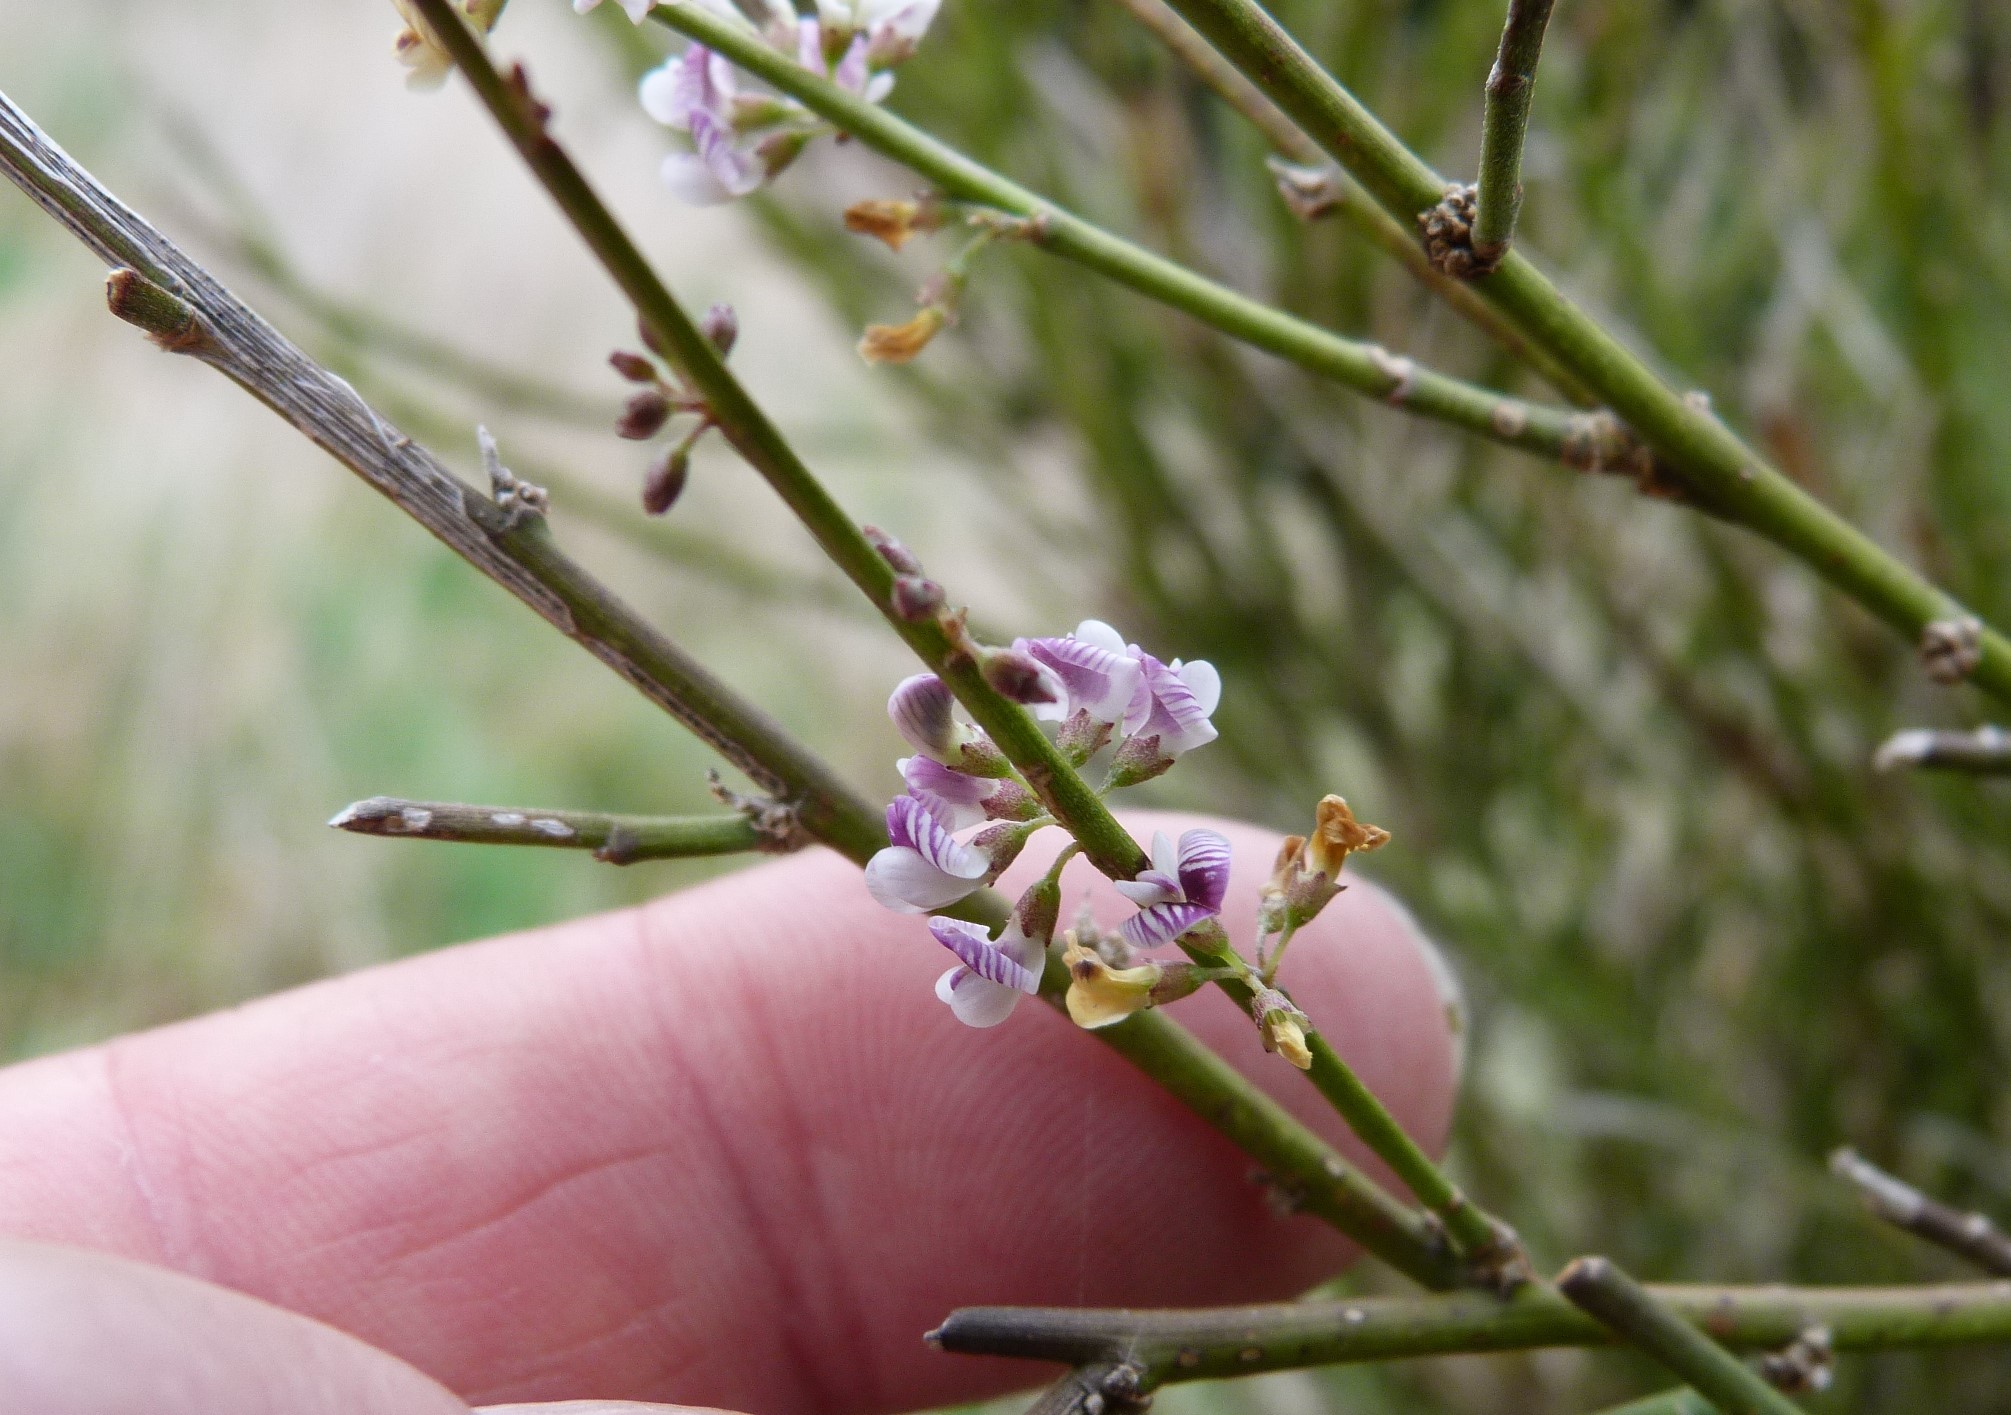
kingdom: Plantae
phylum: Tracheophyta
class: Magnoliopsida
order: Fabales
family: Fabaceae
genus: Carmichaelia
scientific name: Carmichaelia australis
